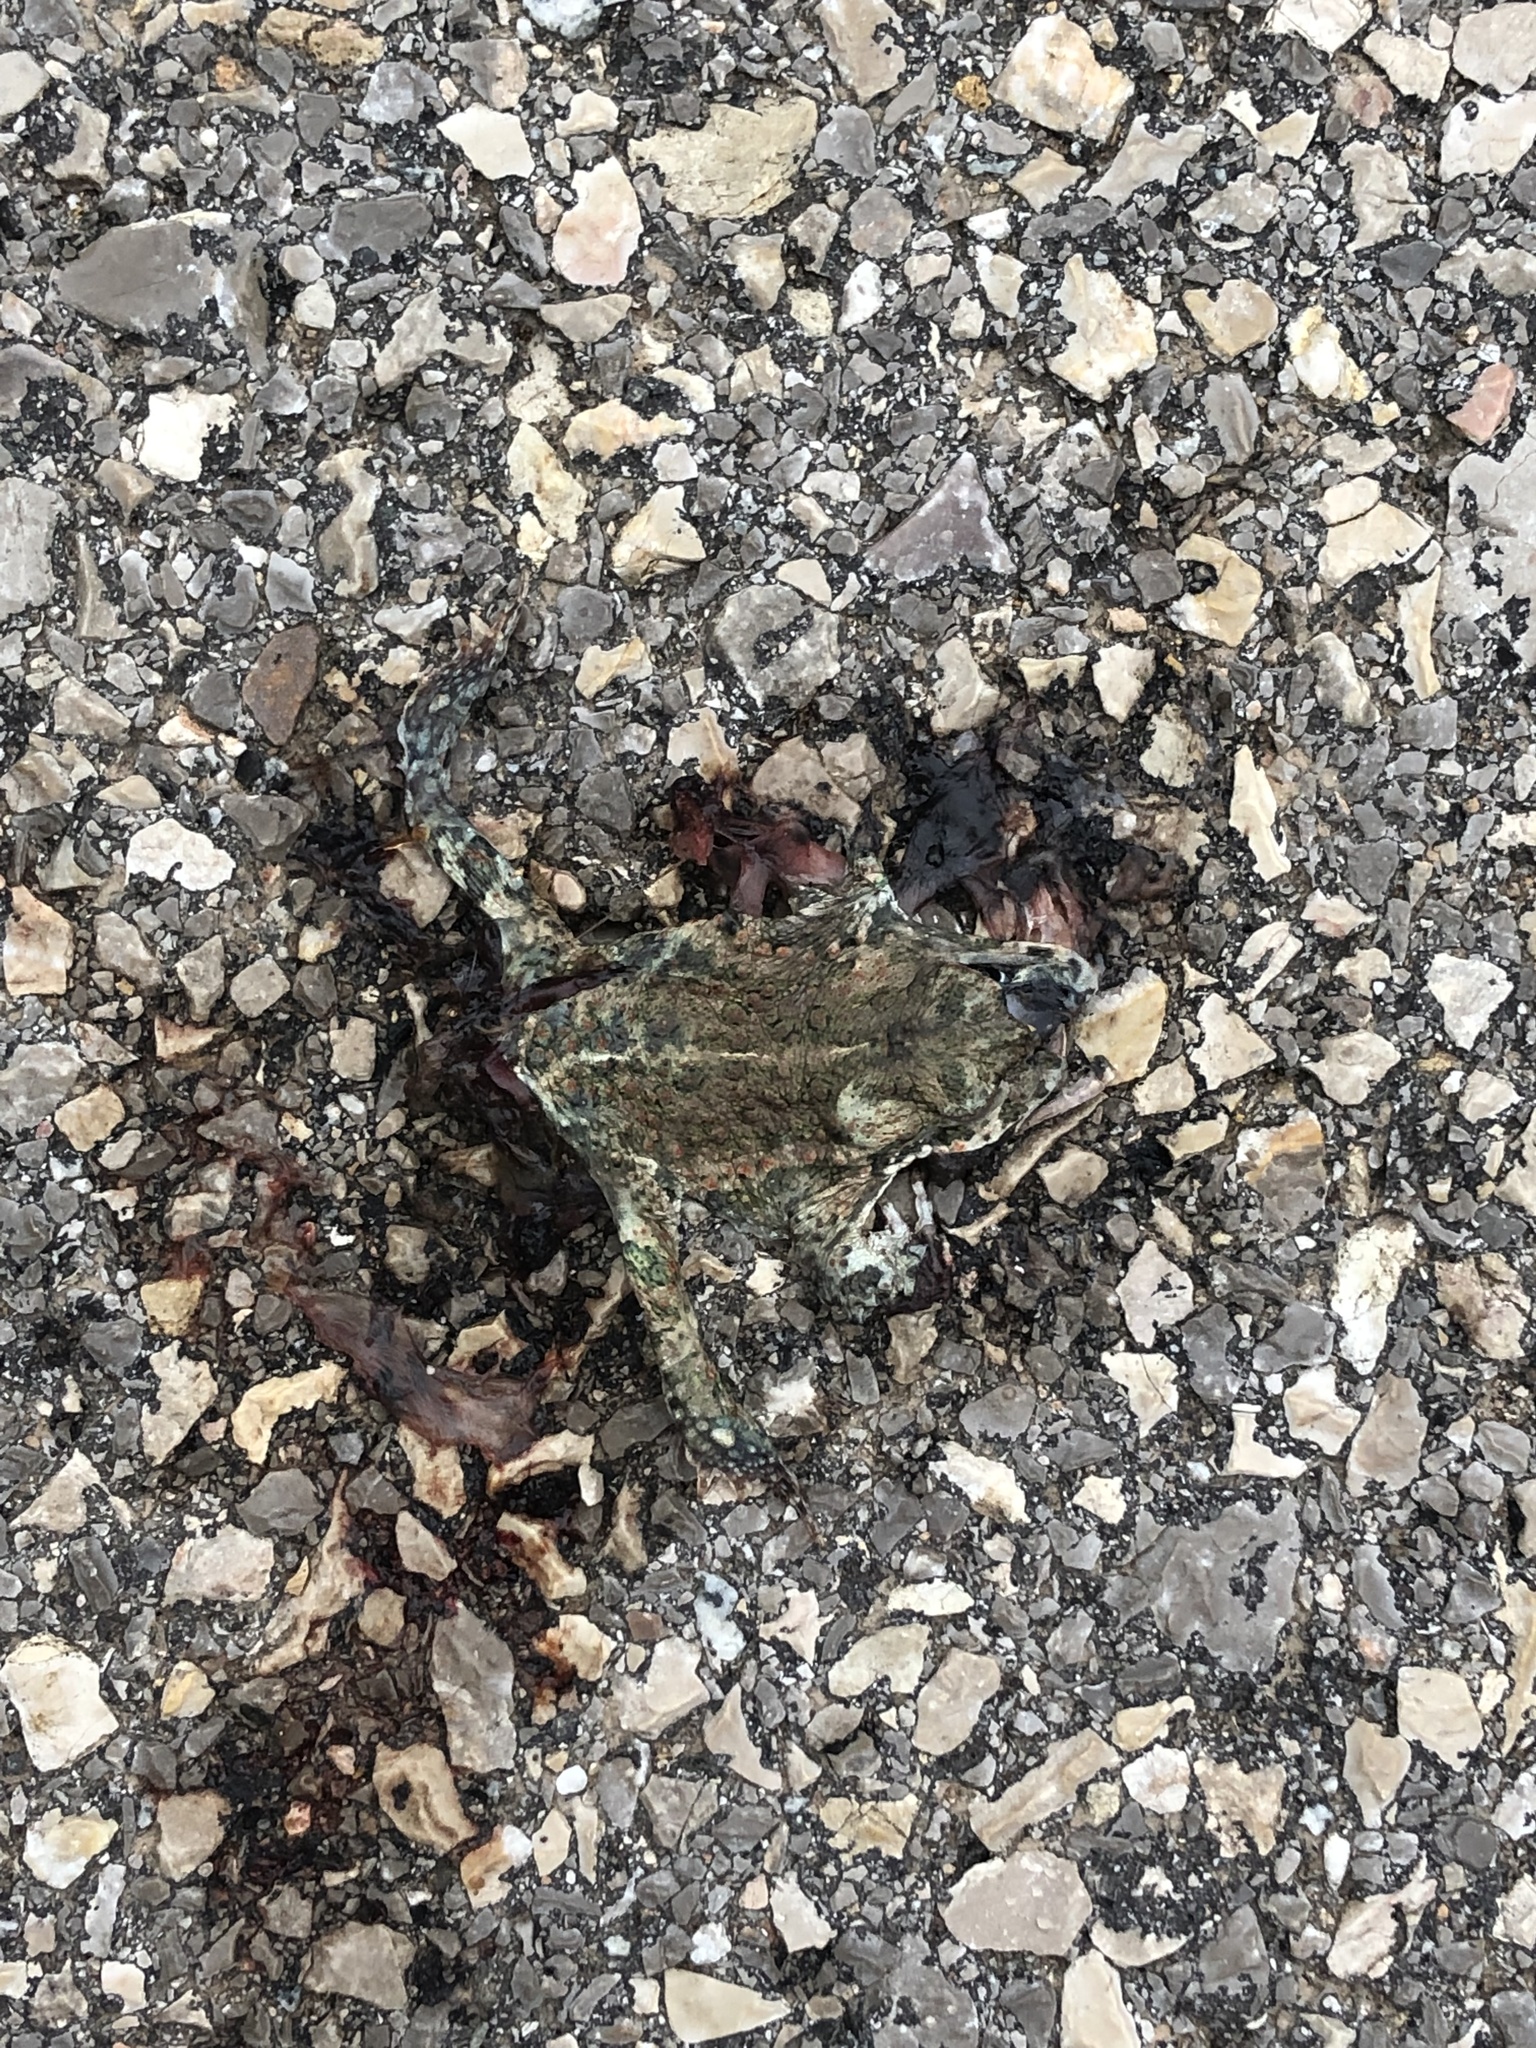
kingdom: Animalia
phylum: Chordata
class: Amphibia
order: Anura
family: Bufonidae
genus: Epidalea
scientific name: Epidalea calamita
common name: Natterjack toad
